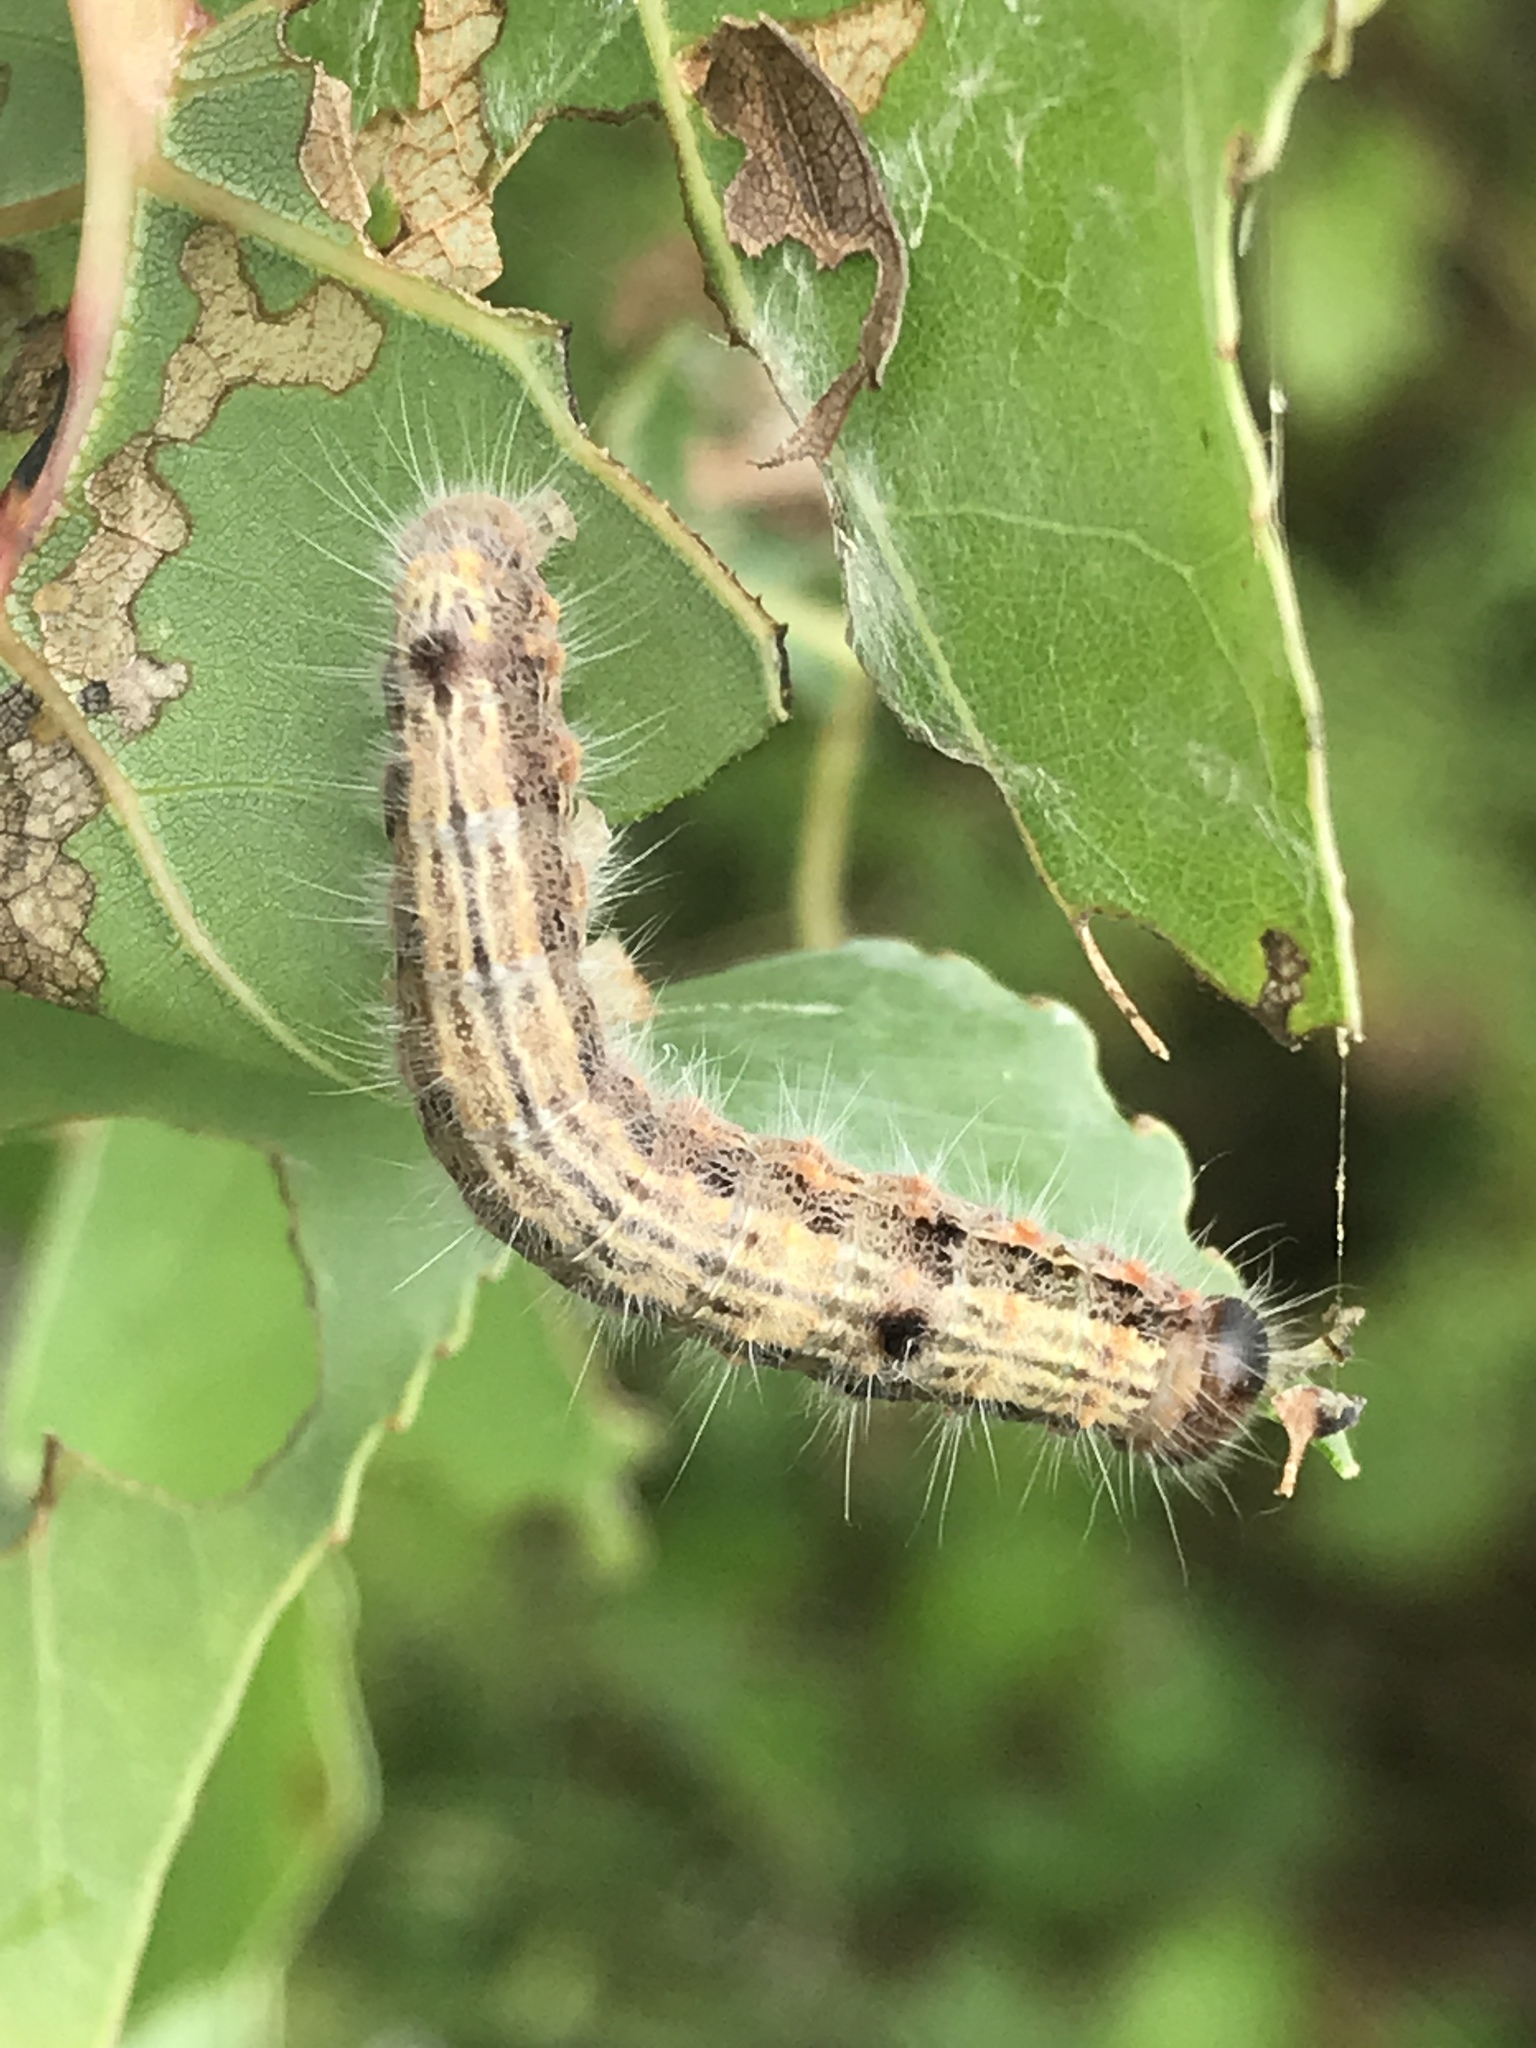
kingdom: Animalia
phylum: Arthropoda
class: Insecta
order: Lepidoptera
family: Notodontidae
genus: Clostera
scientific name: Clostera albosigma
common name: Sigmoid prominent
